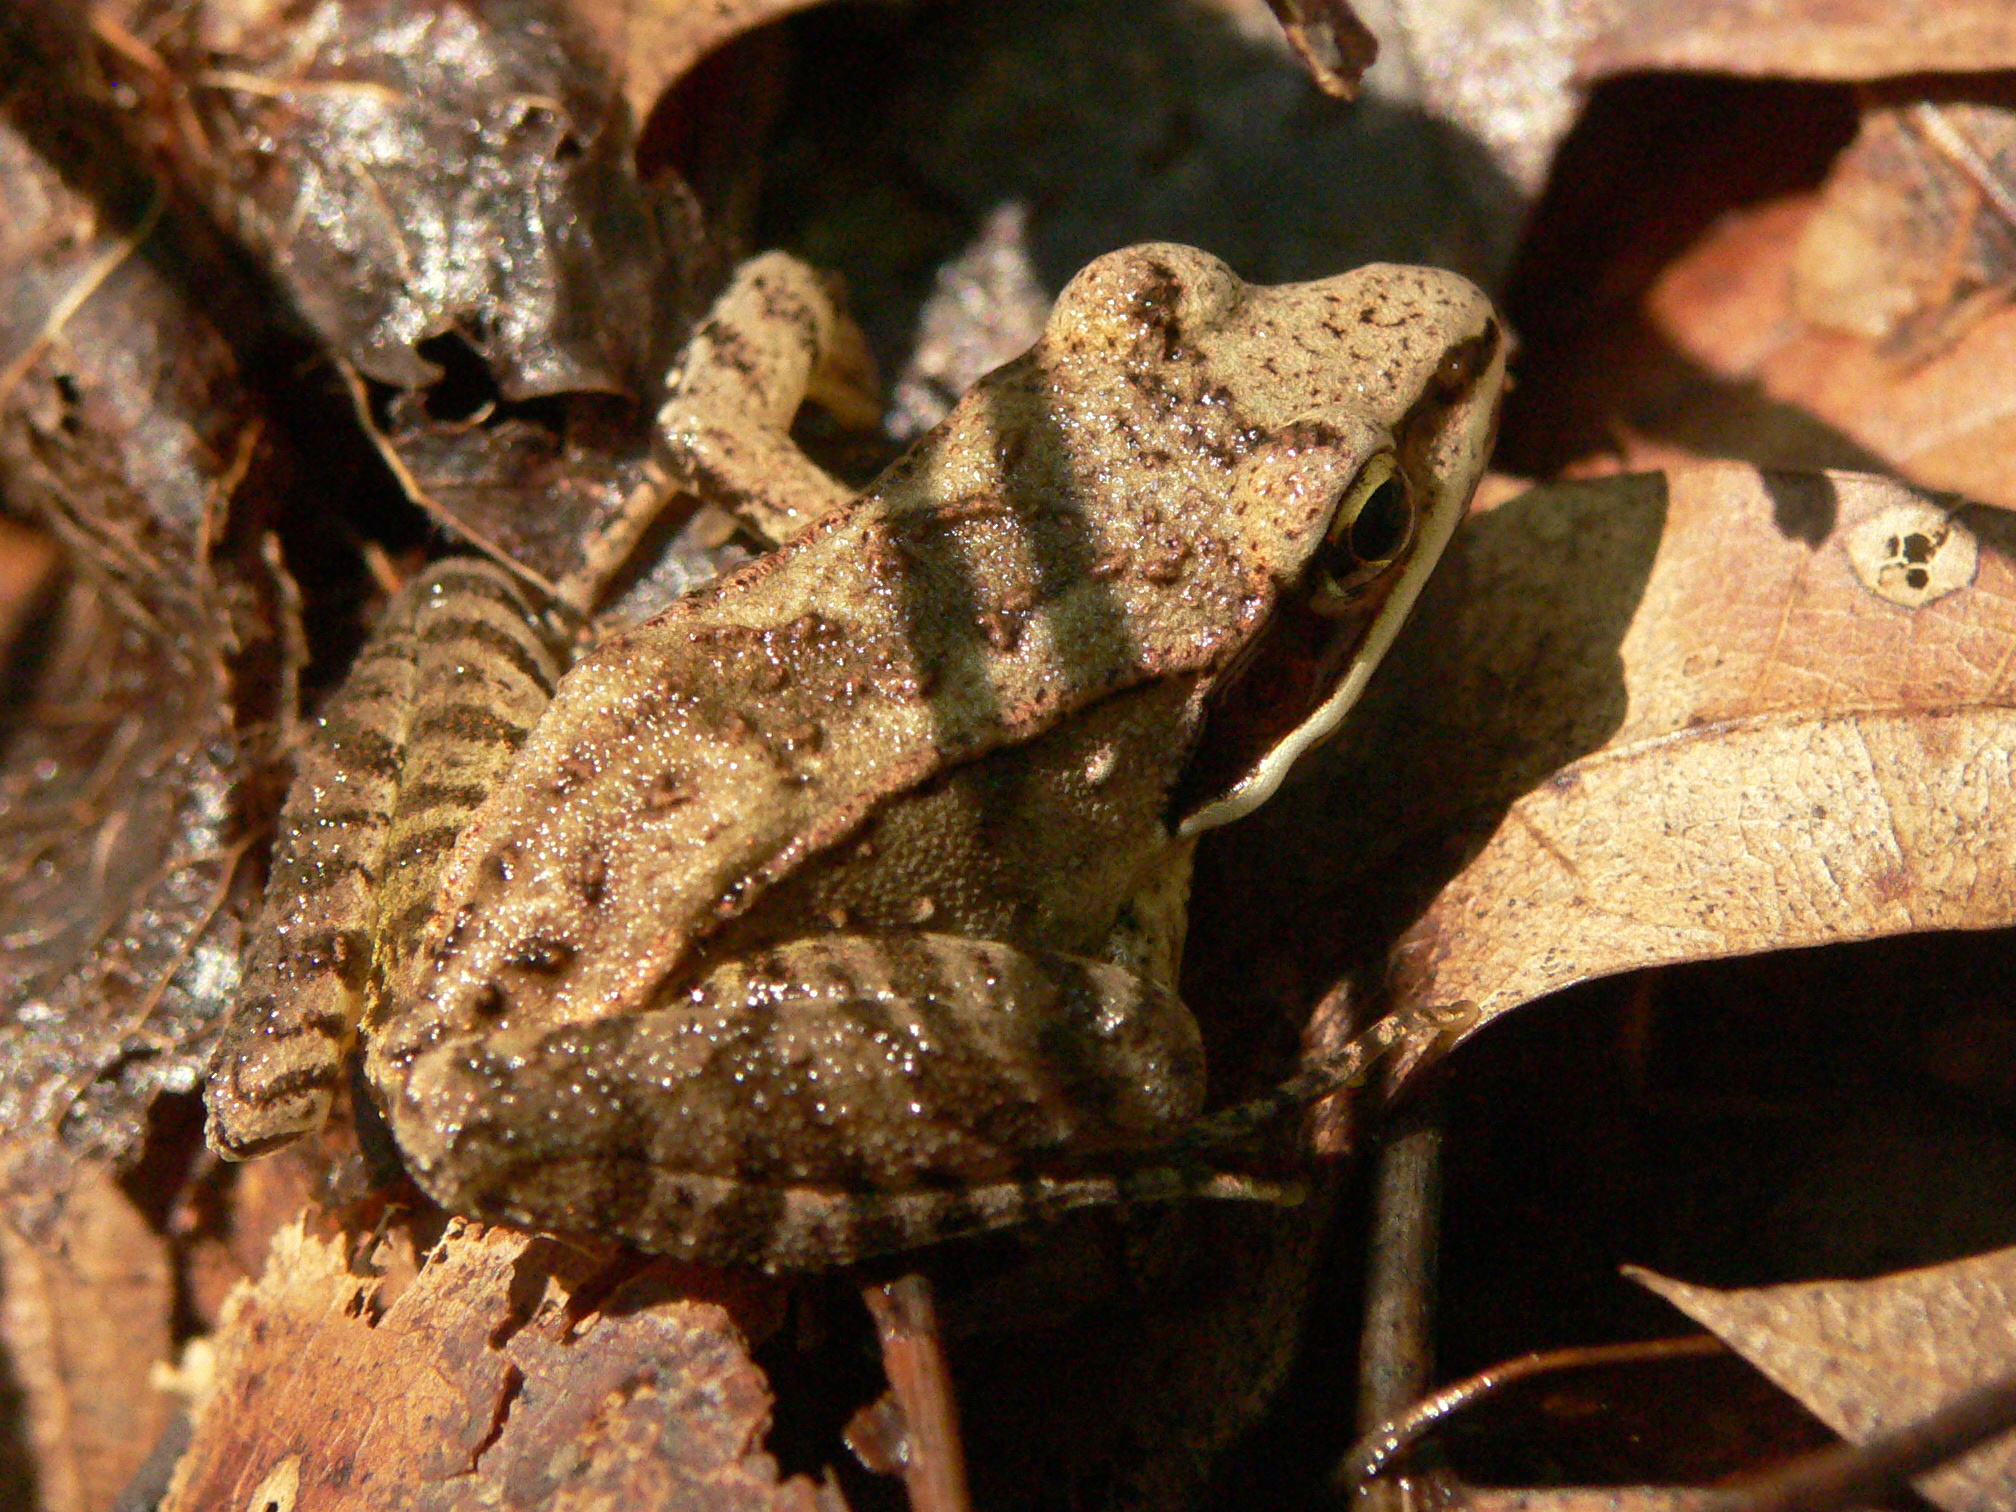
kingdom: Animalia
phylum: Chordata
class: Amphibia
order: Anura
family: Ranidae
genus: Lithobates
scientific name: Lithobates sylvaticus
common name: Wood frog
